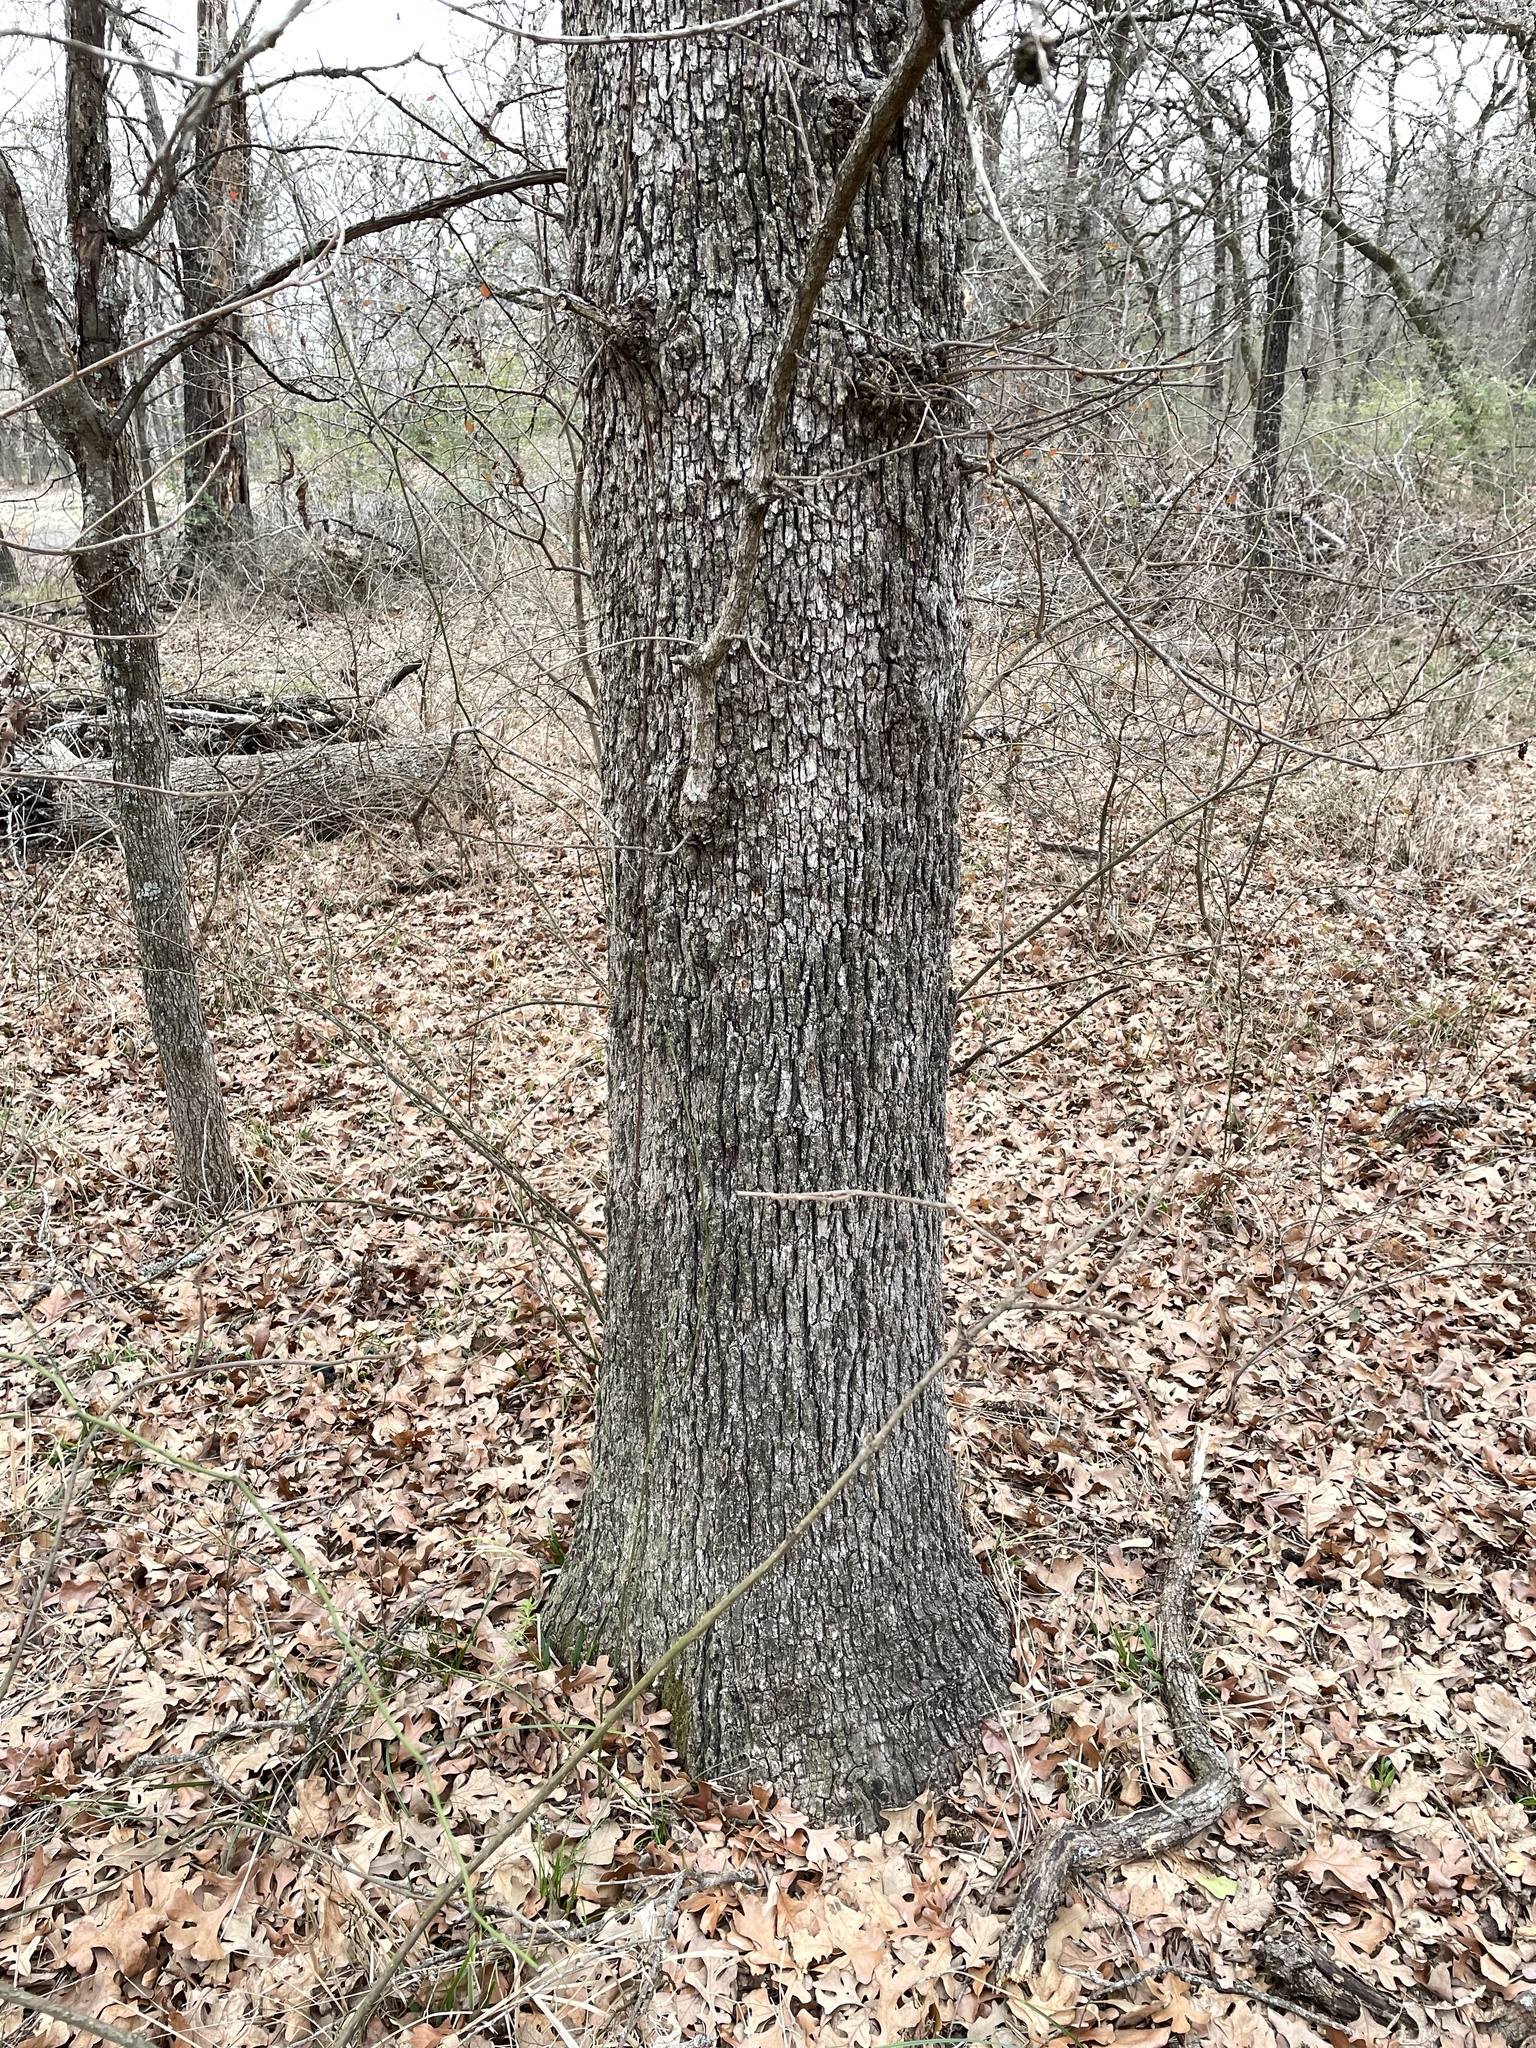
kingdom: Plantae
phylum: Tracheophyta
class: Magnoliopsida
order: Fagales
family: Fagaceae
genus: Quercus
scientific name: Quercus stellata
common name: Post oak
